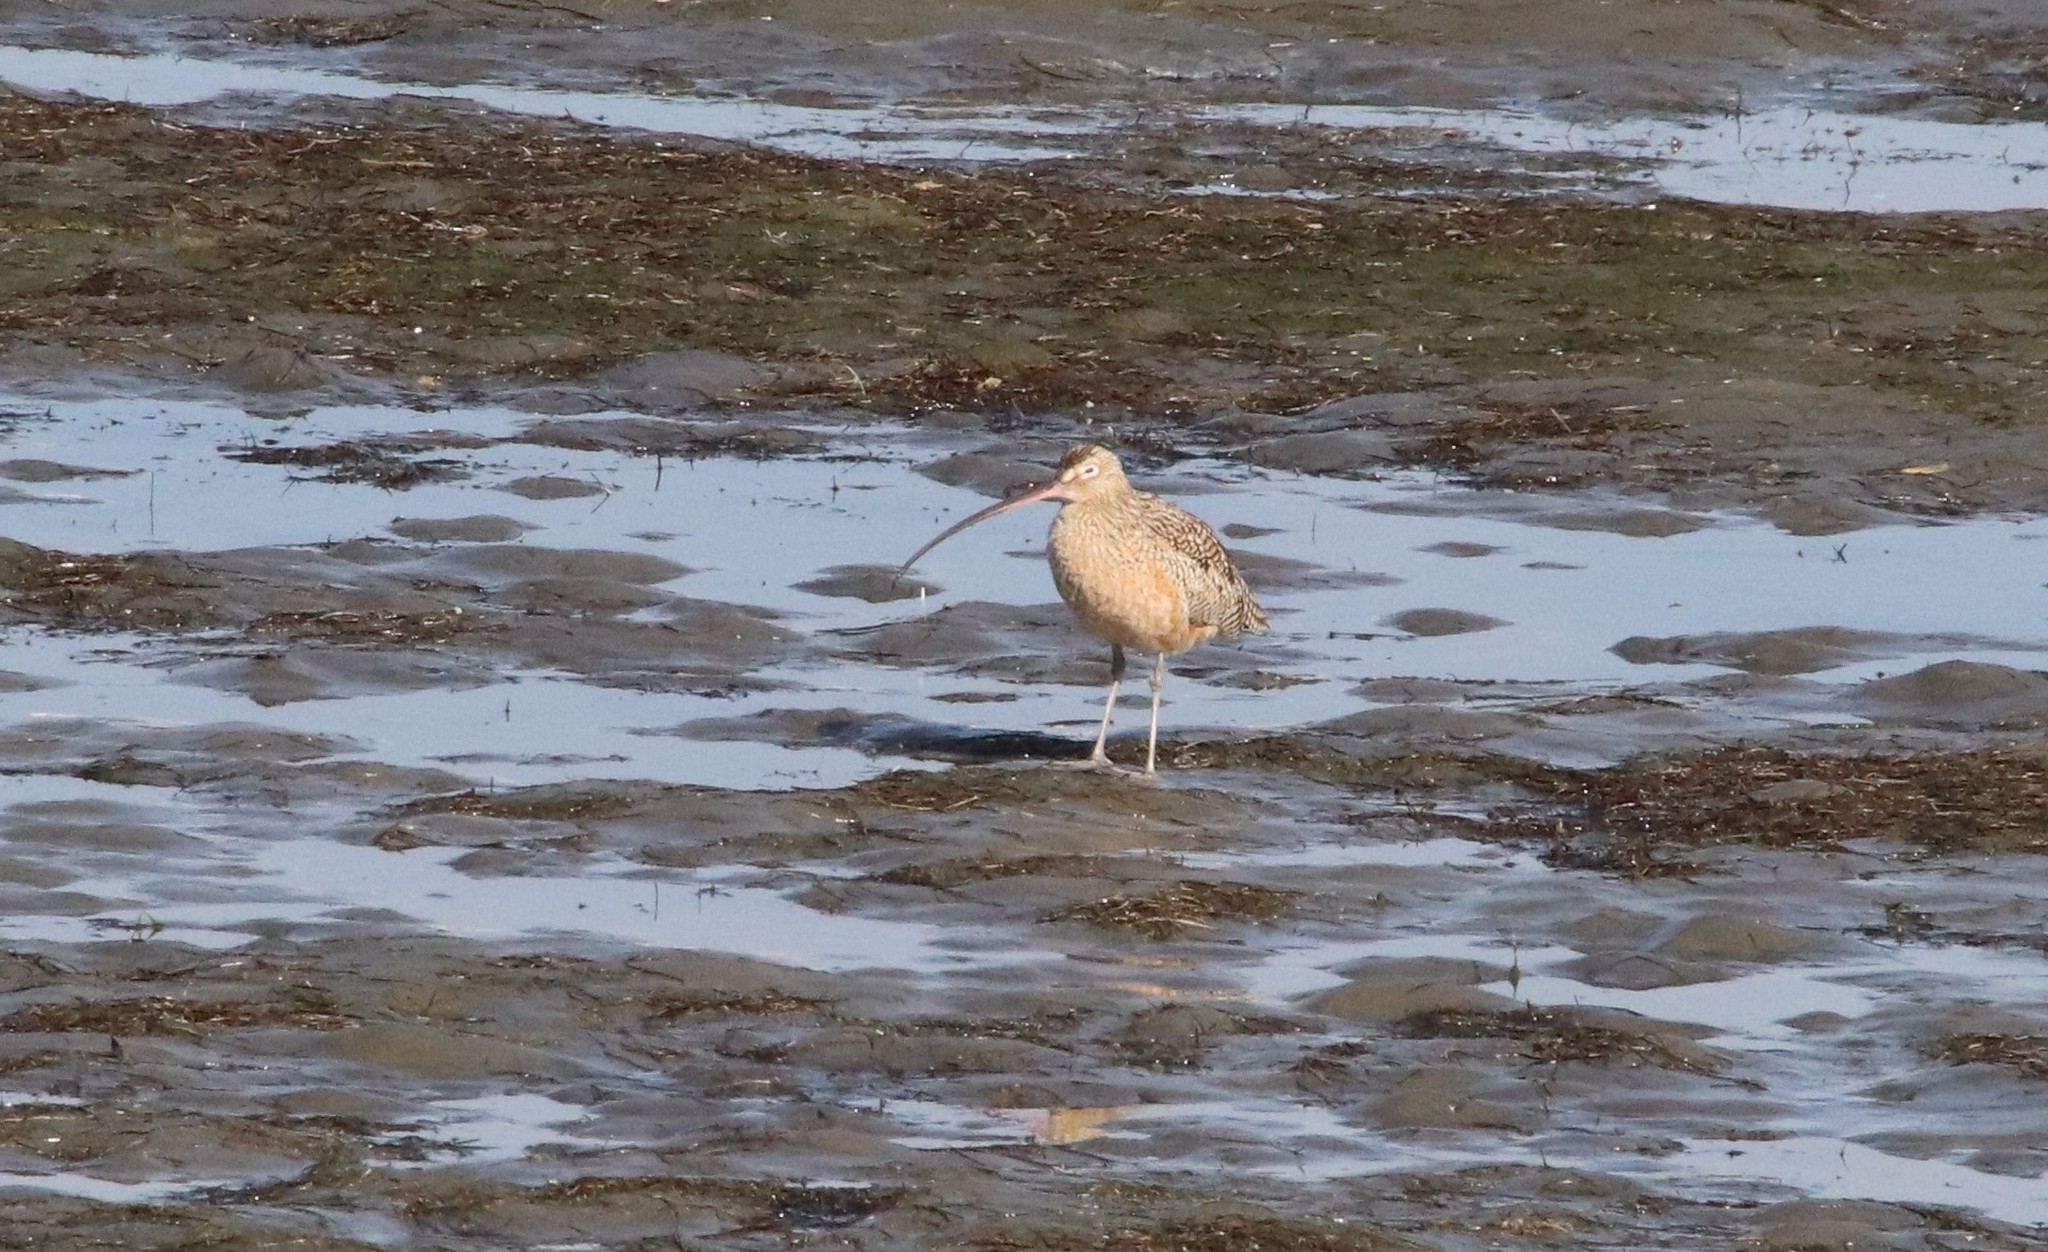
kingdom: Animalia
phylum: Chordata
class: Aves
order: Charadriiformes
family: Scolopacidae
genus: Numenius
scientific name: Numenius americanus
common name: Long-billed curlew
